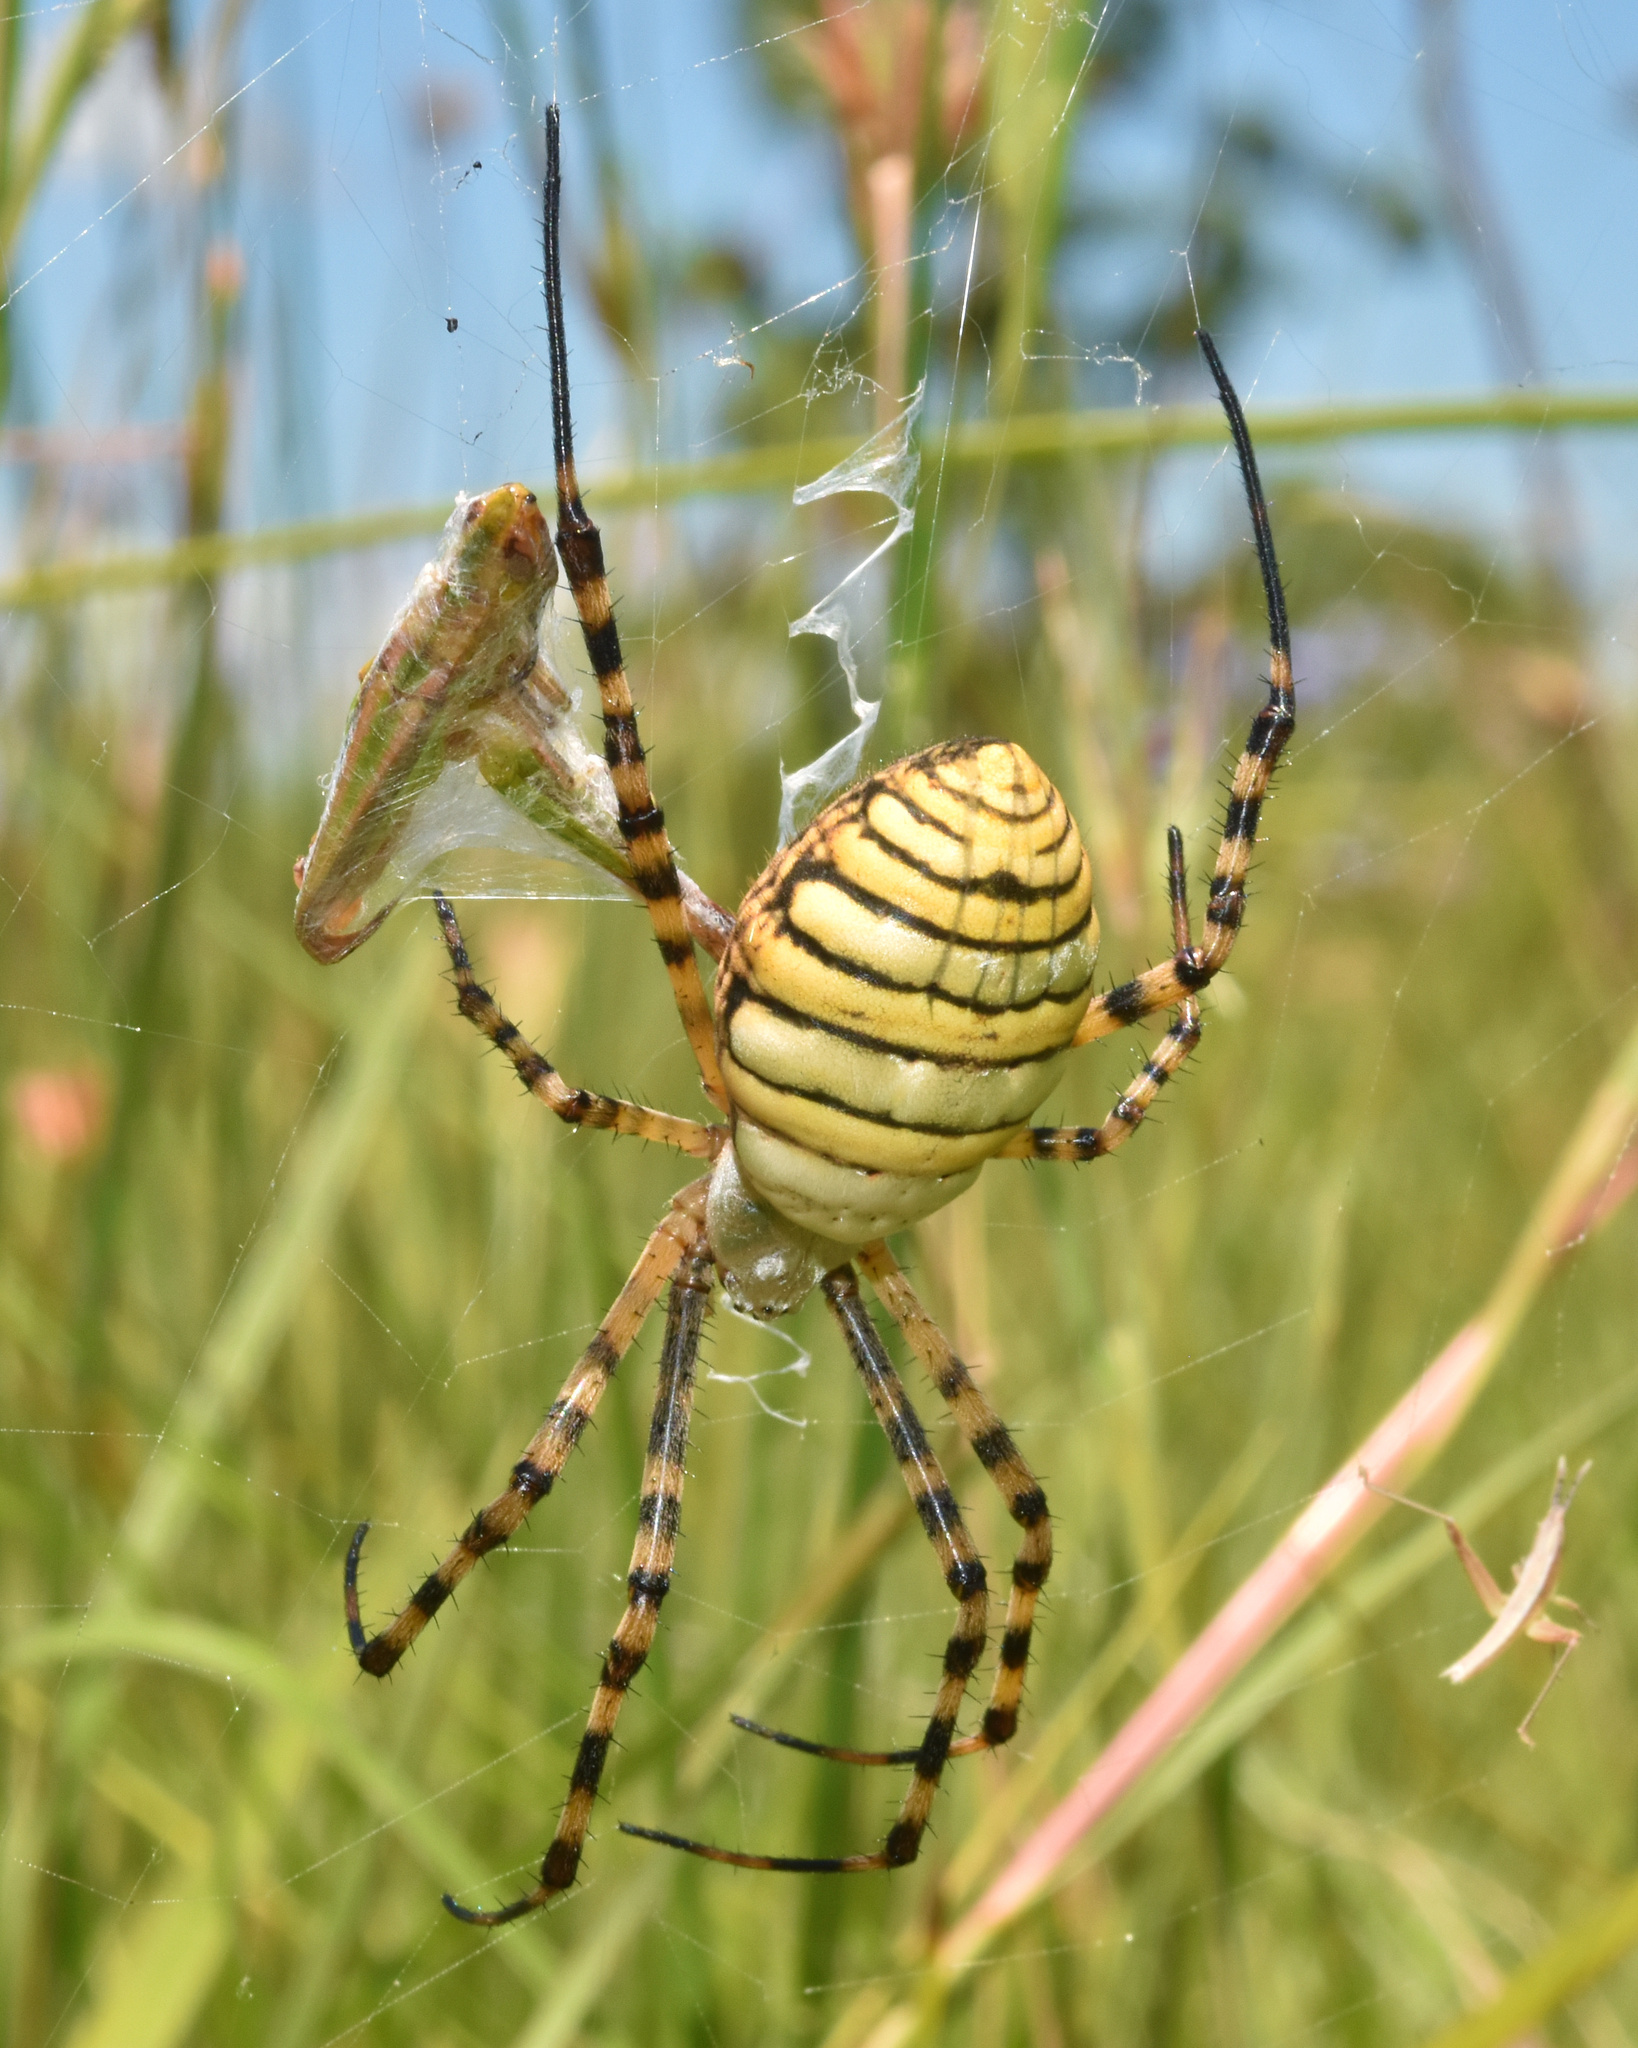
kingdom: Animalia
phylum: Arthropoda
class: Arachnida
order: Araneae
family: Araneidae
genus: Argiope
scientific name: Argiope trifasciata
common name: Banded garden spider
